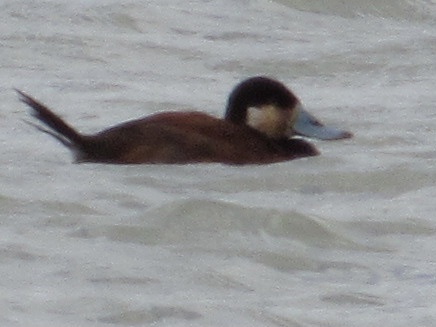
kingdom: Animalia
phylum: Chordata
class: Aves
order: Anseriformes
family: Anatidae
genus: Oxyura
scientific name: Oxyura jamaicensis
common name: Ruddy duck
